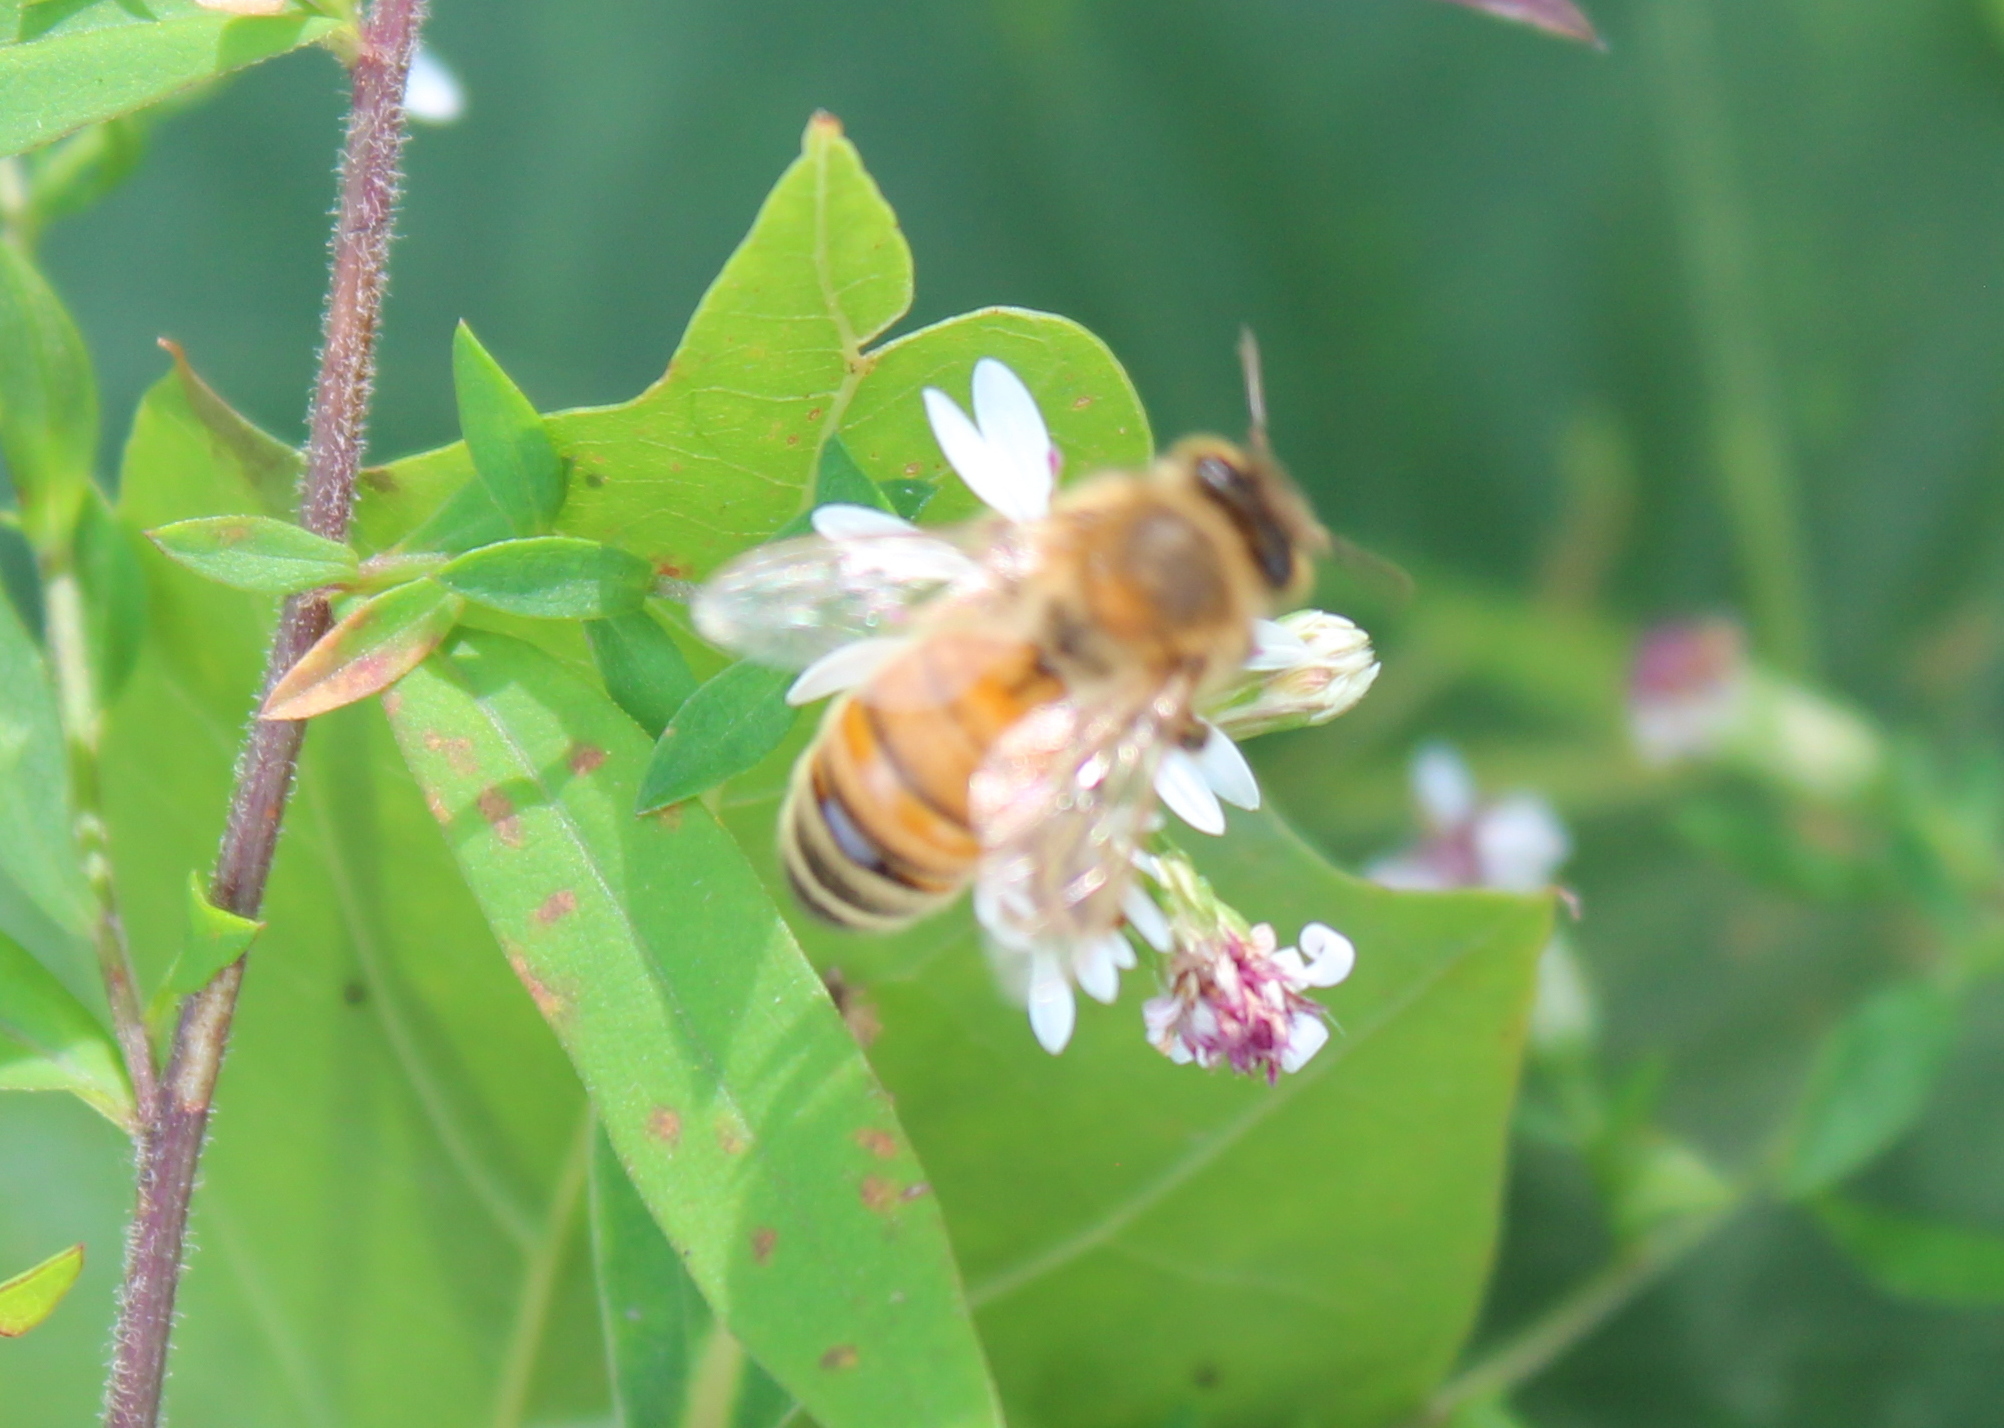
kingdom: Animalia
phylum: Arthropoda
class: Insecta
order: Hymenoptera
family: Apidae
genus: Apis
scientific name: Apis mellifera
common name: Honey bee
